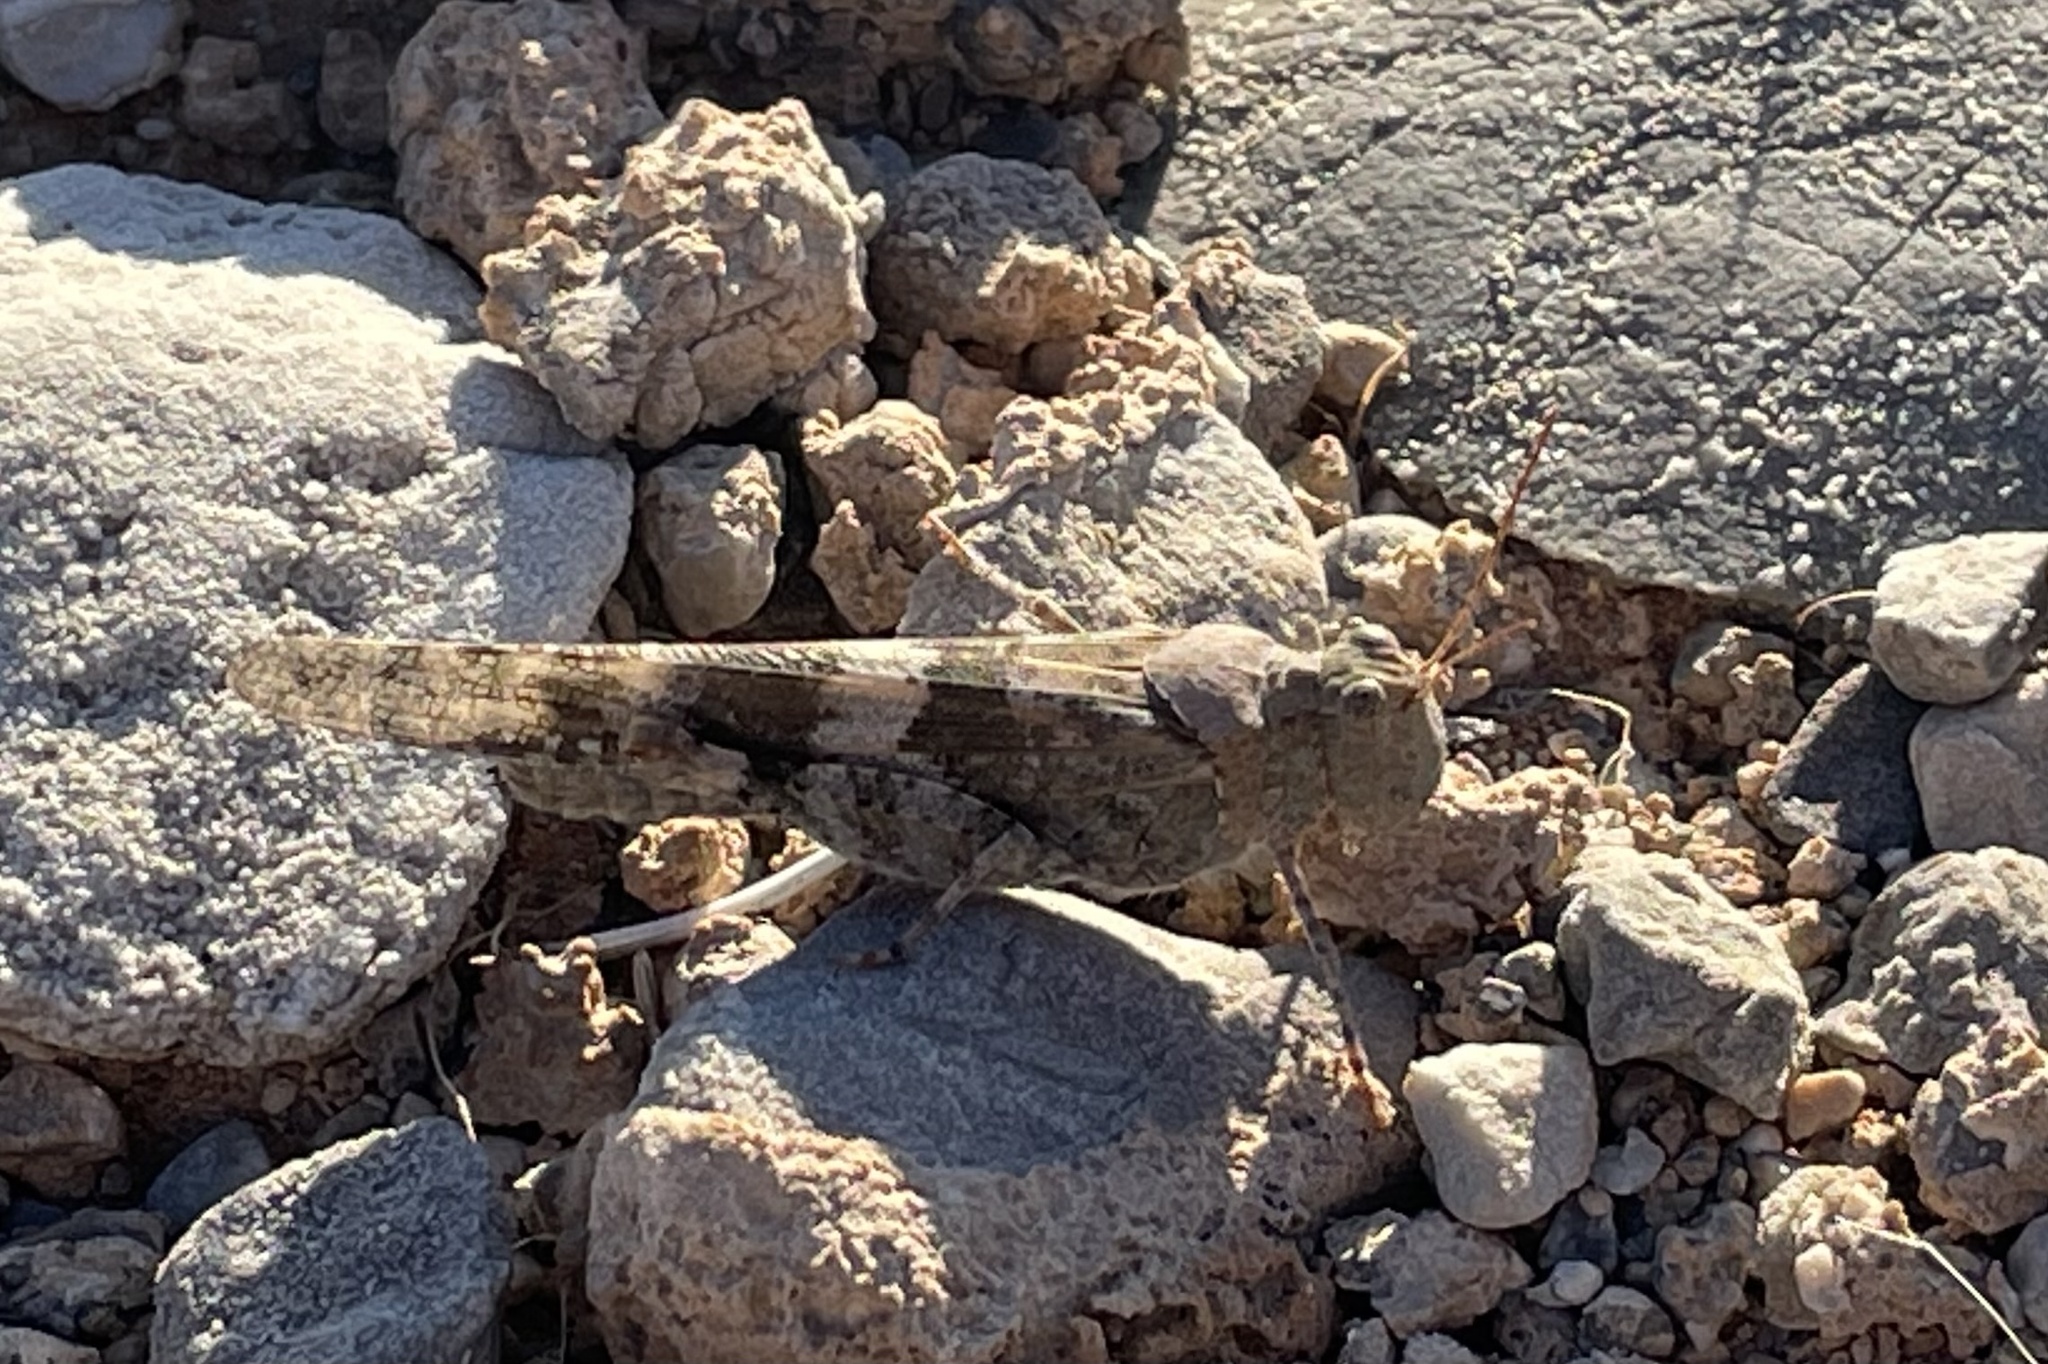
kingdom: Animalia
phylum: Arthropoda
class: Insecta
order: Orthoptera
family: Acrididae
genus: Trimerotropis
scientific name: Trimerotropis pallidipennis
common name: Pallid-winged grasshopper
